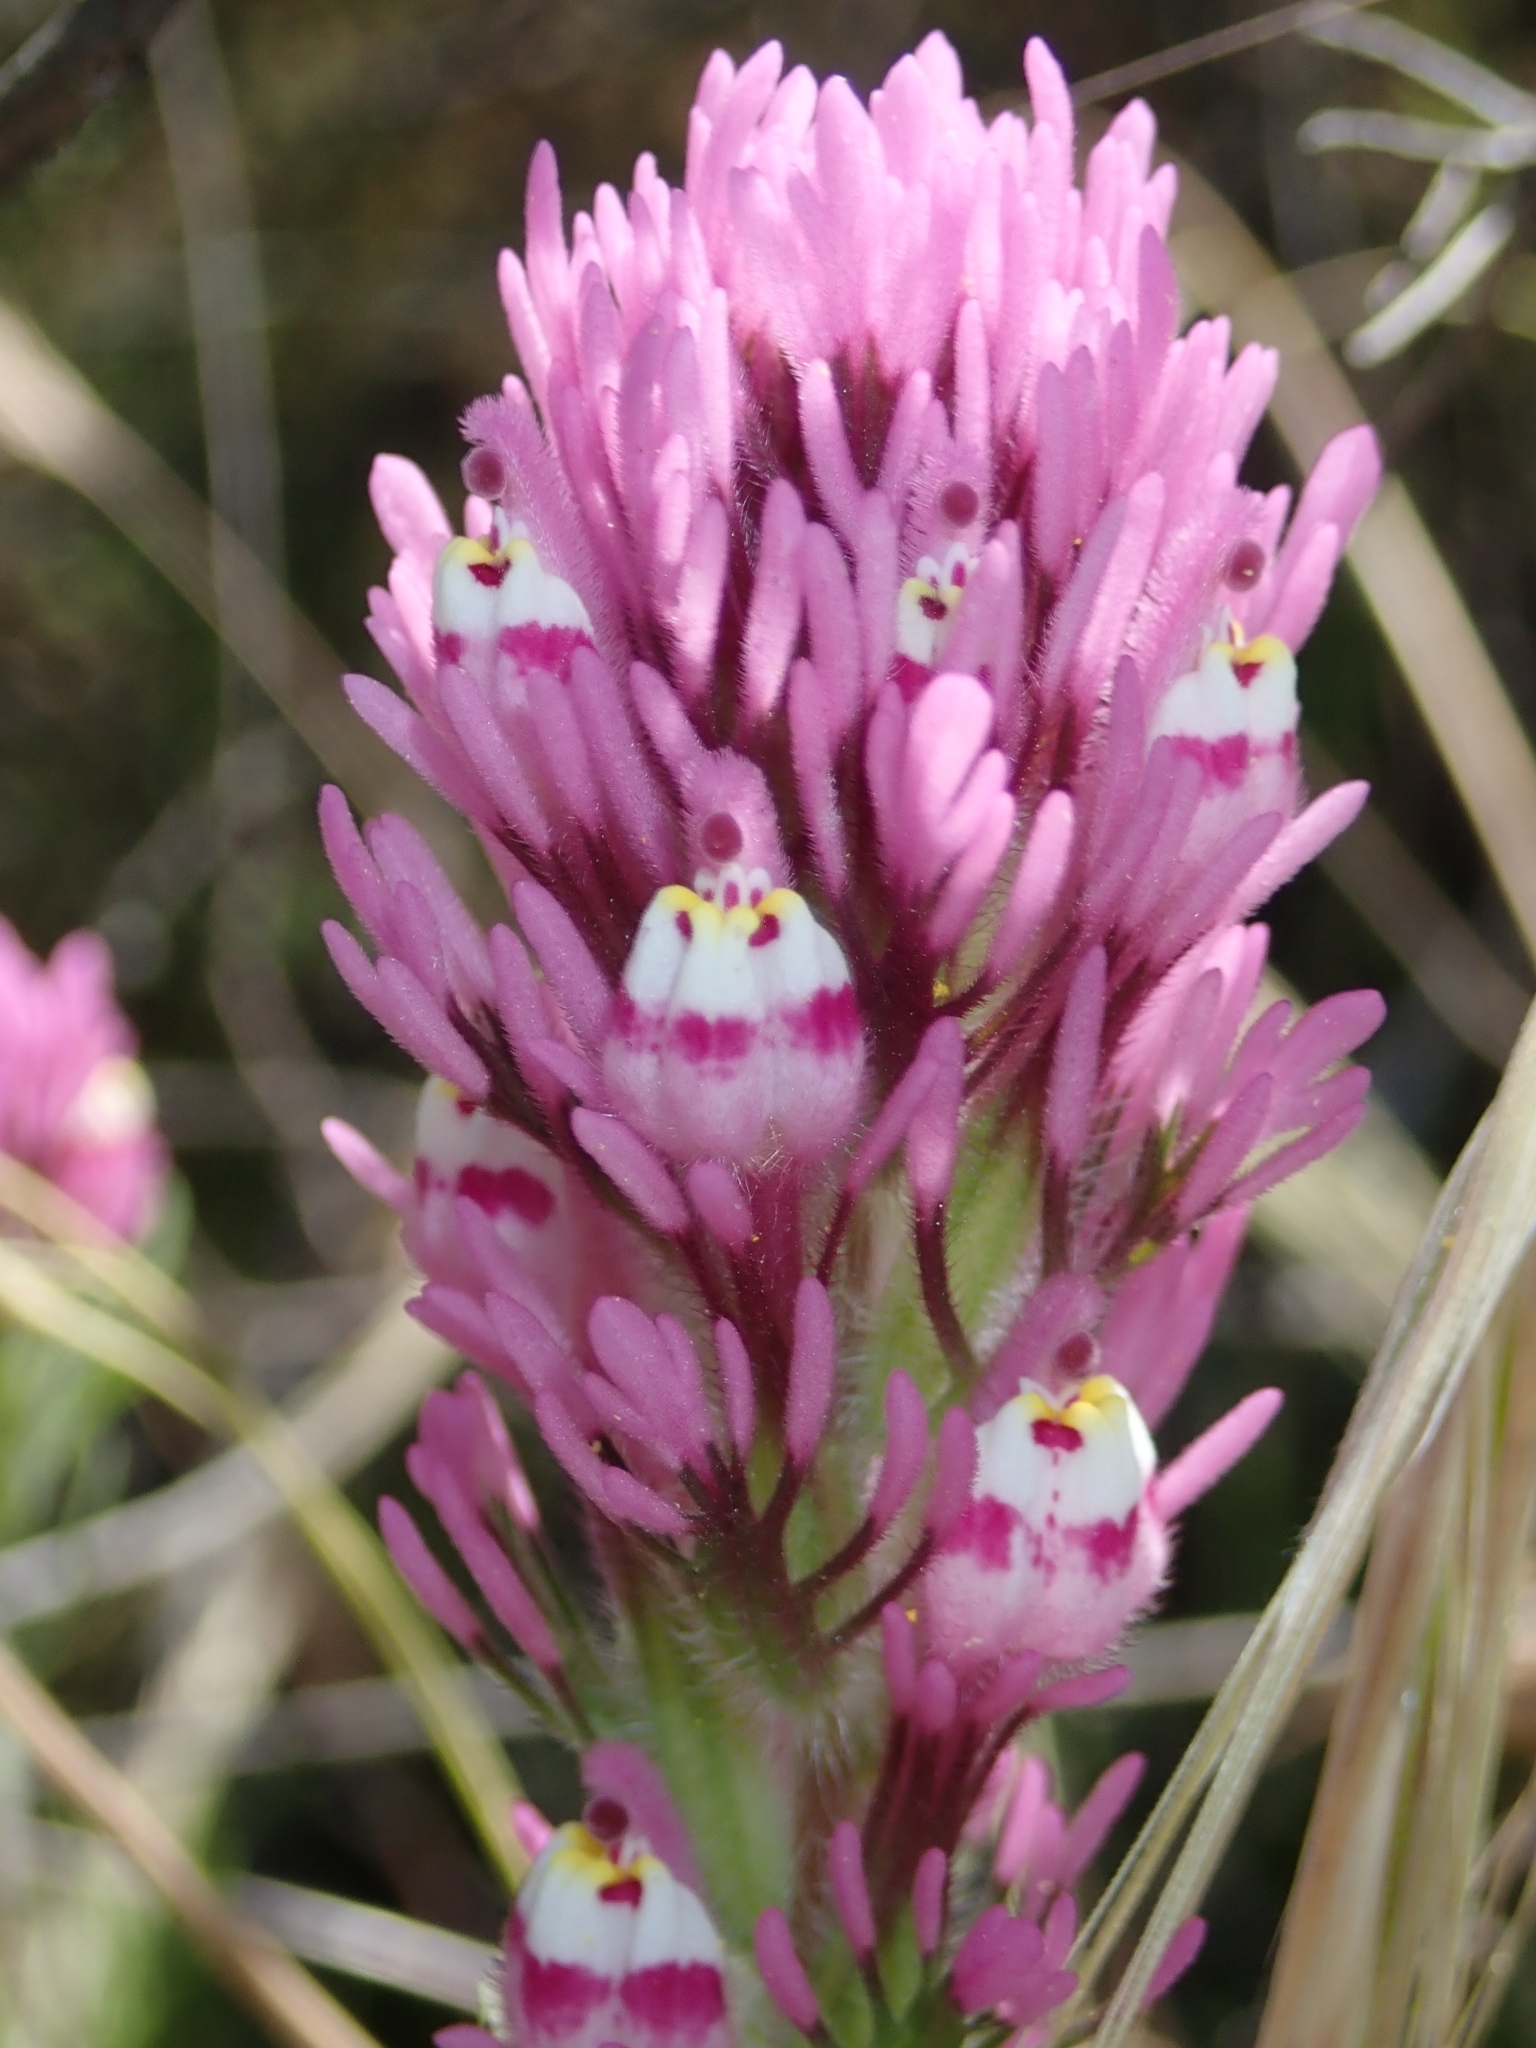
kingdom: Plantae
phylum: Tracheophyta
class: Magnoliopsida
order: Lamiales
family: Orobanchaceae
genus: Castilleja
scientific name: Castilleja exserta
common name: Purple owl-clover
